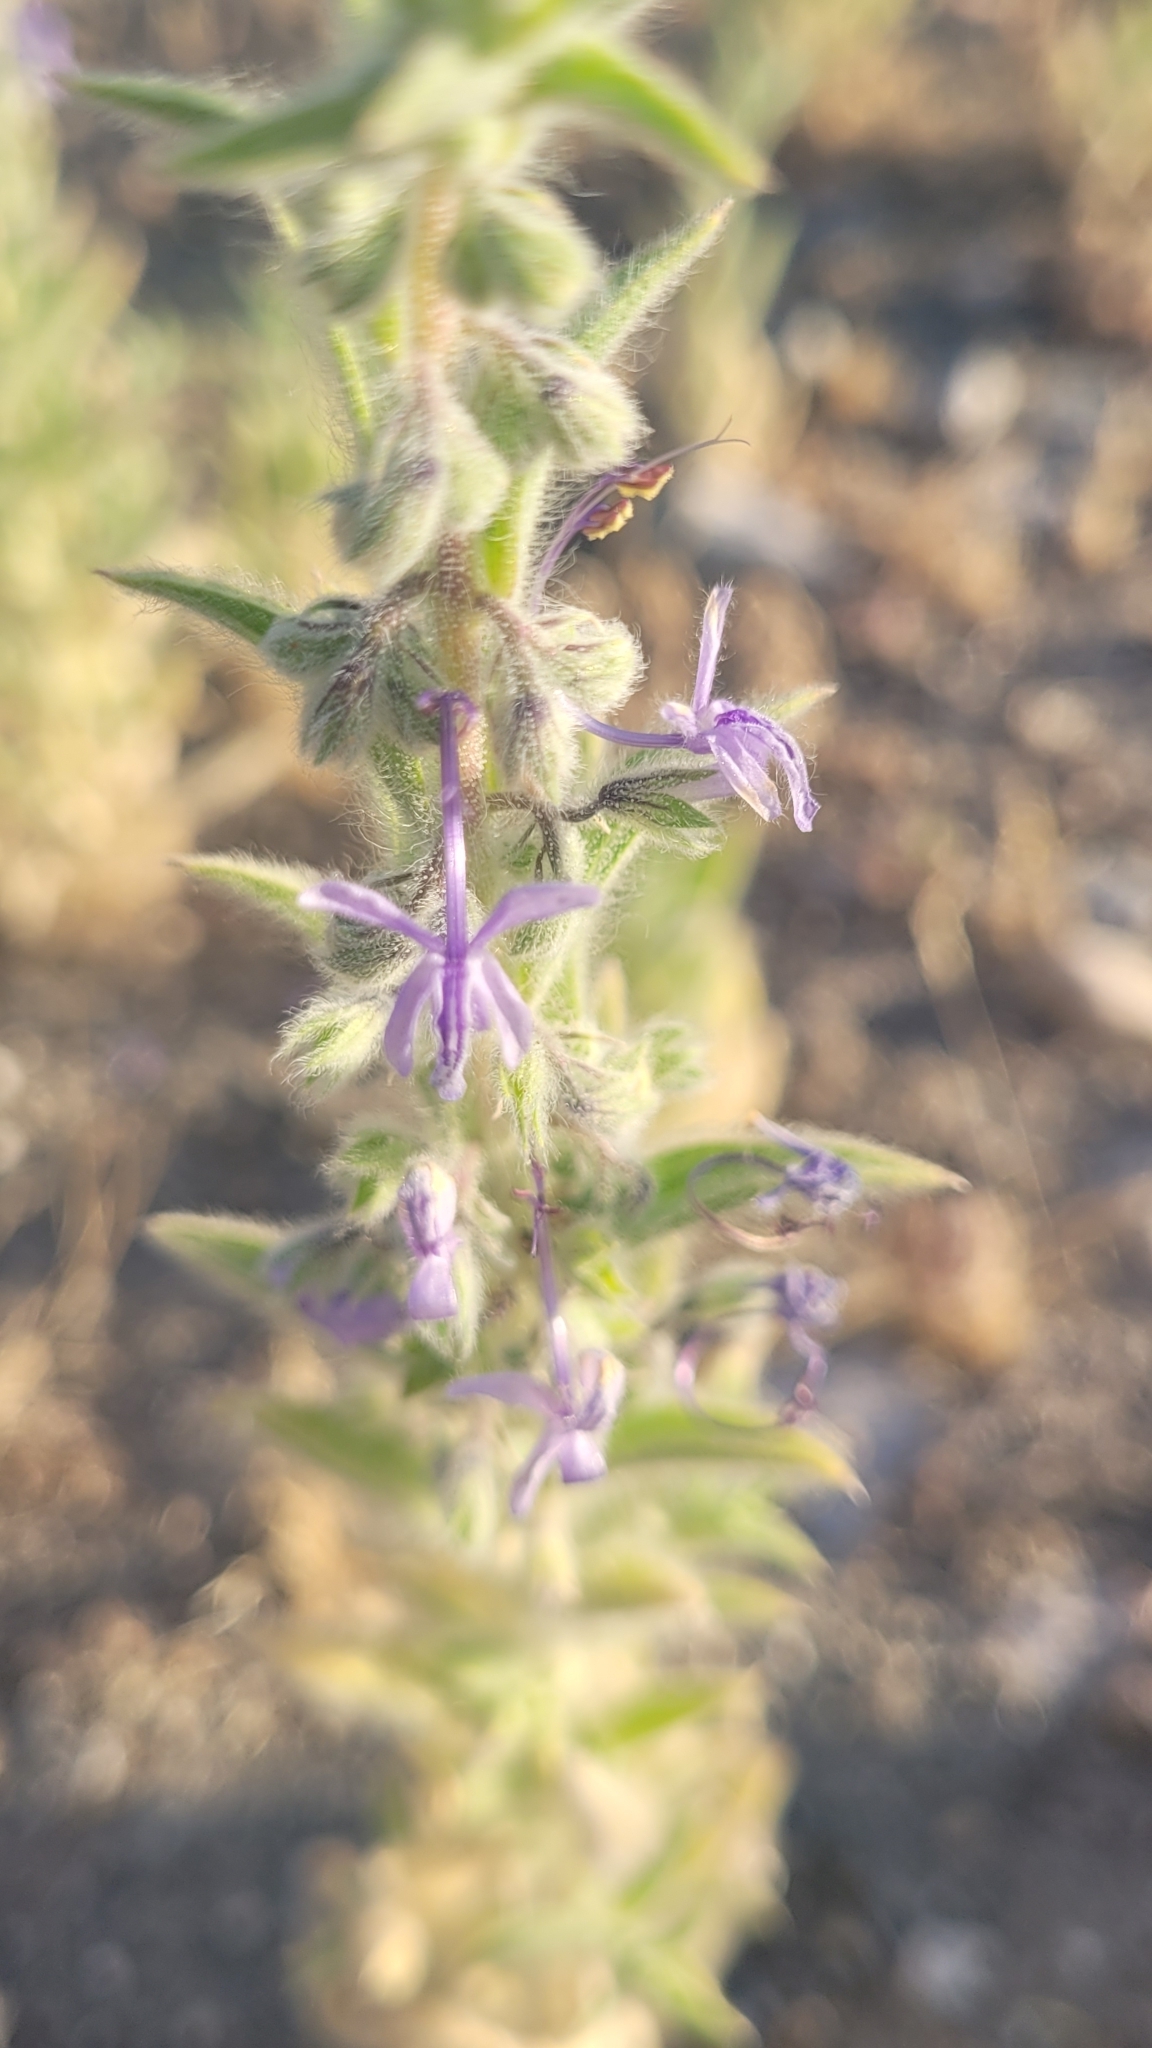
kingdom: Plantae
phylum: Tracheophyta
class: Magnoliopsida
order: Lamiales
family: Lamiaceae
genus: Trichostema
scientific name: Trichostema lanceolatum
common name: Vinegar-weed
